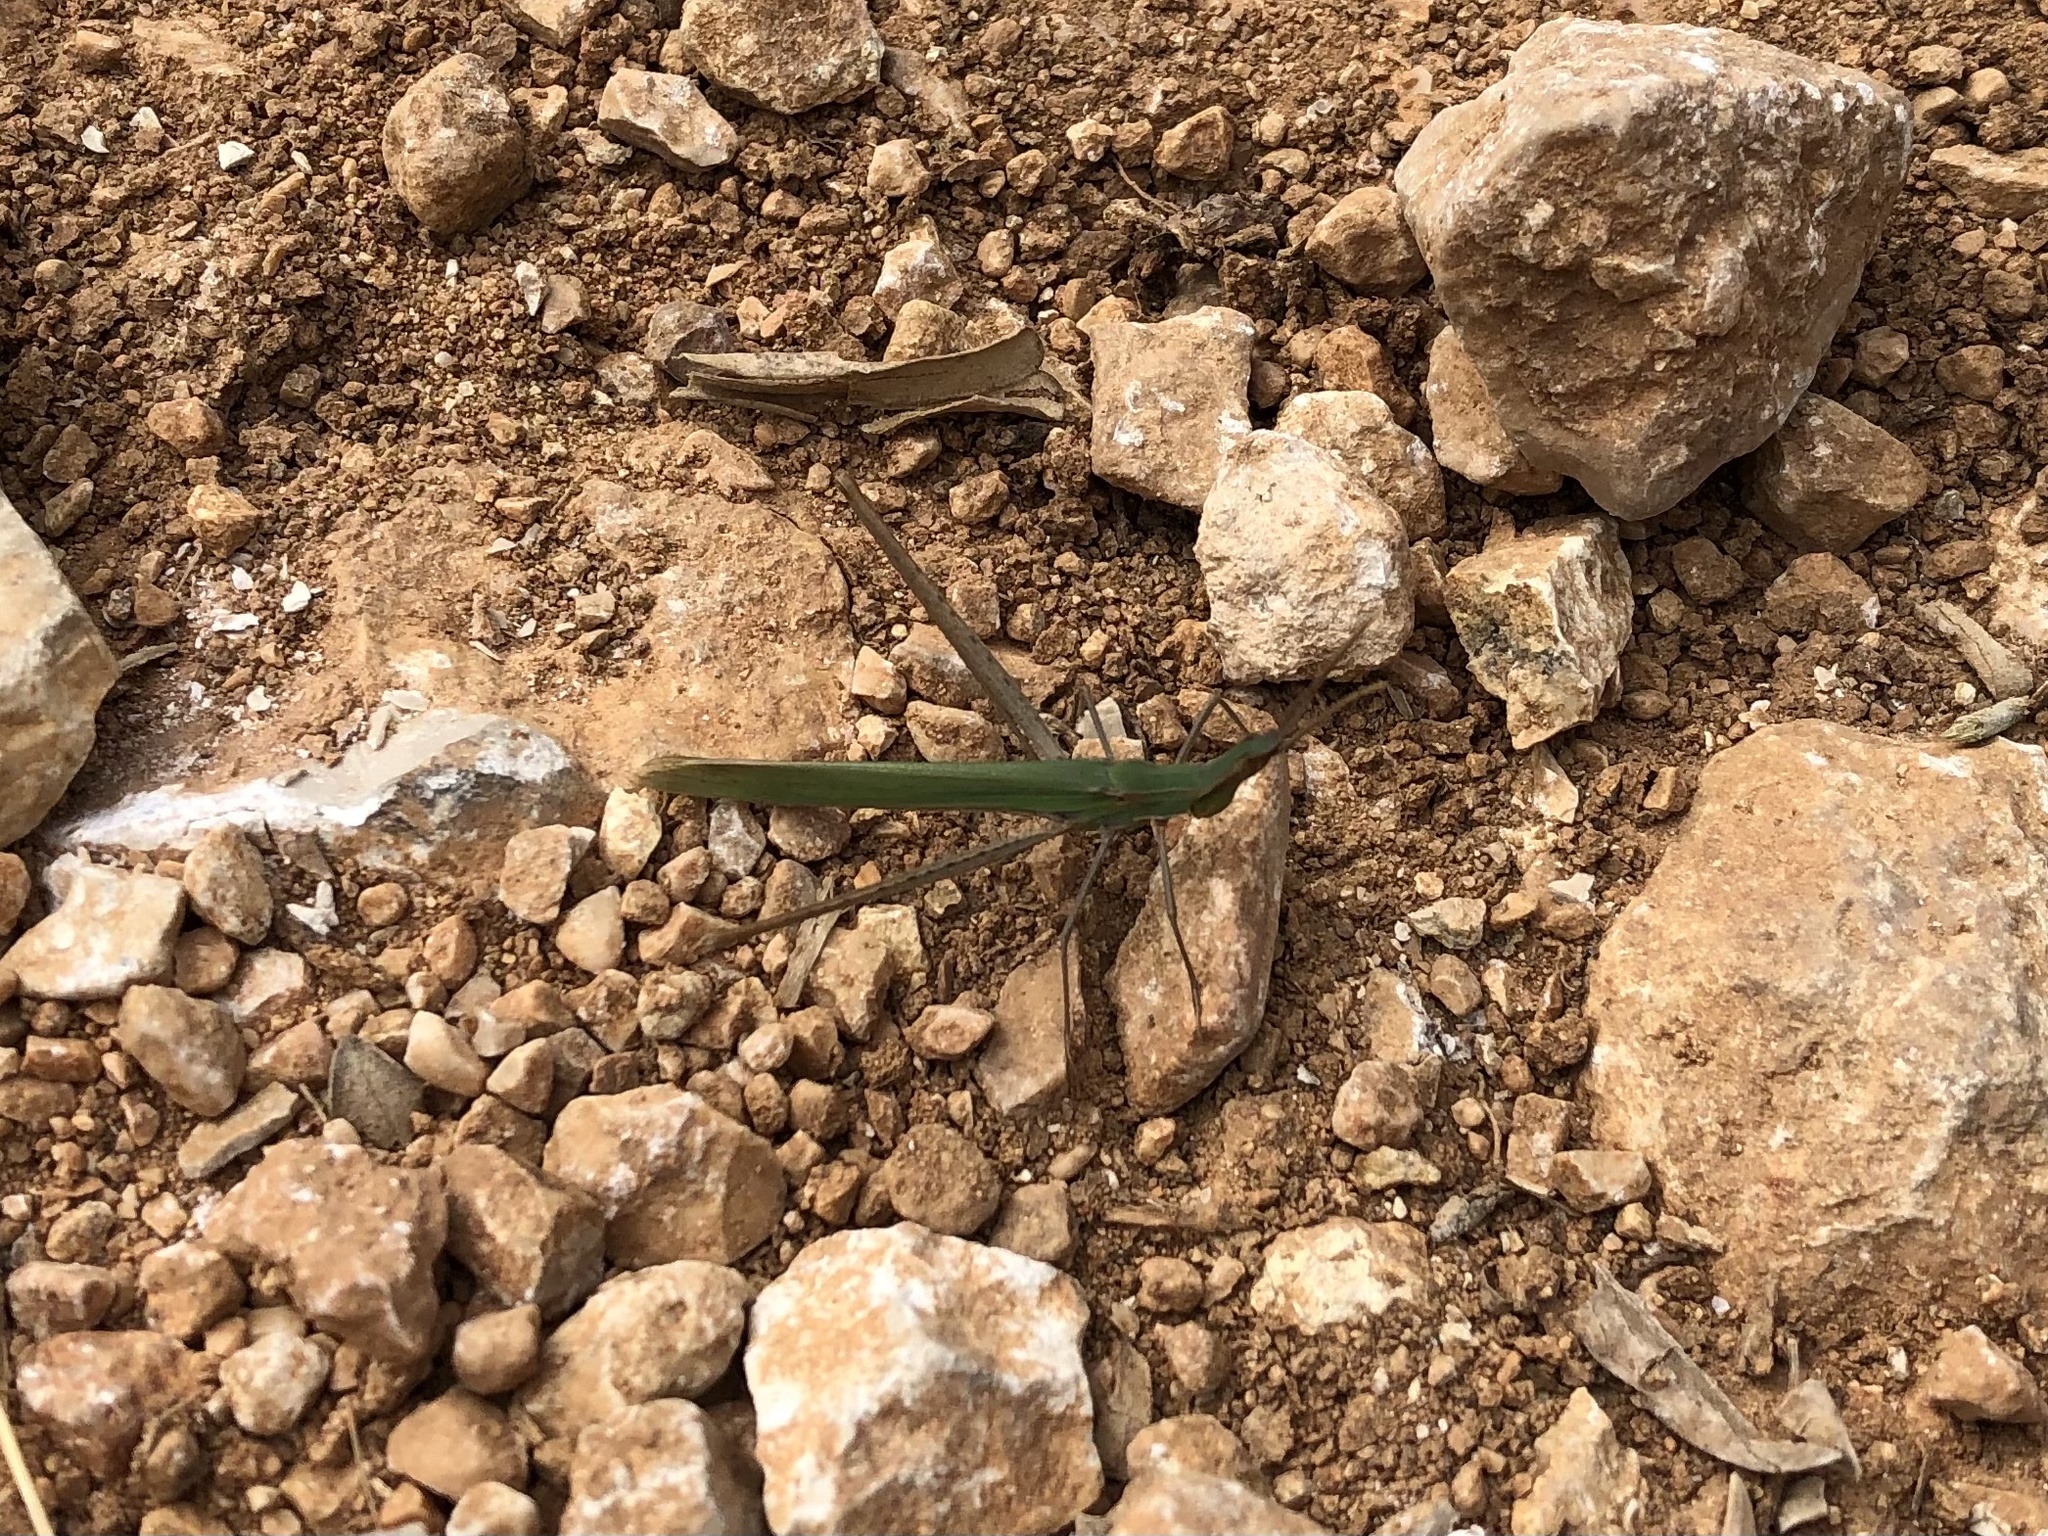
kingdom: Animalia
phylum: Arthropoda
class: Insecta
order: Orthoptera
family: Acrididae
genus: Acrida
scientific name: Acrida ungarica
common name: Common cone-headed grasshopper
